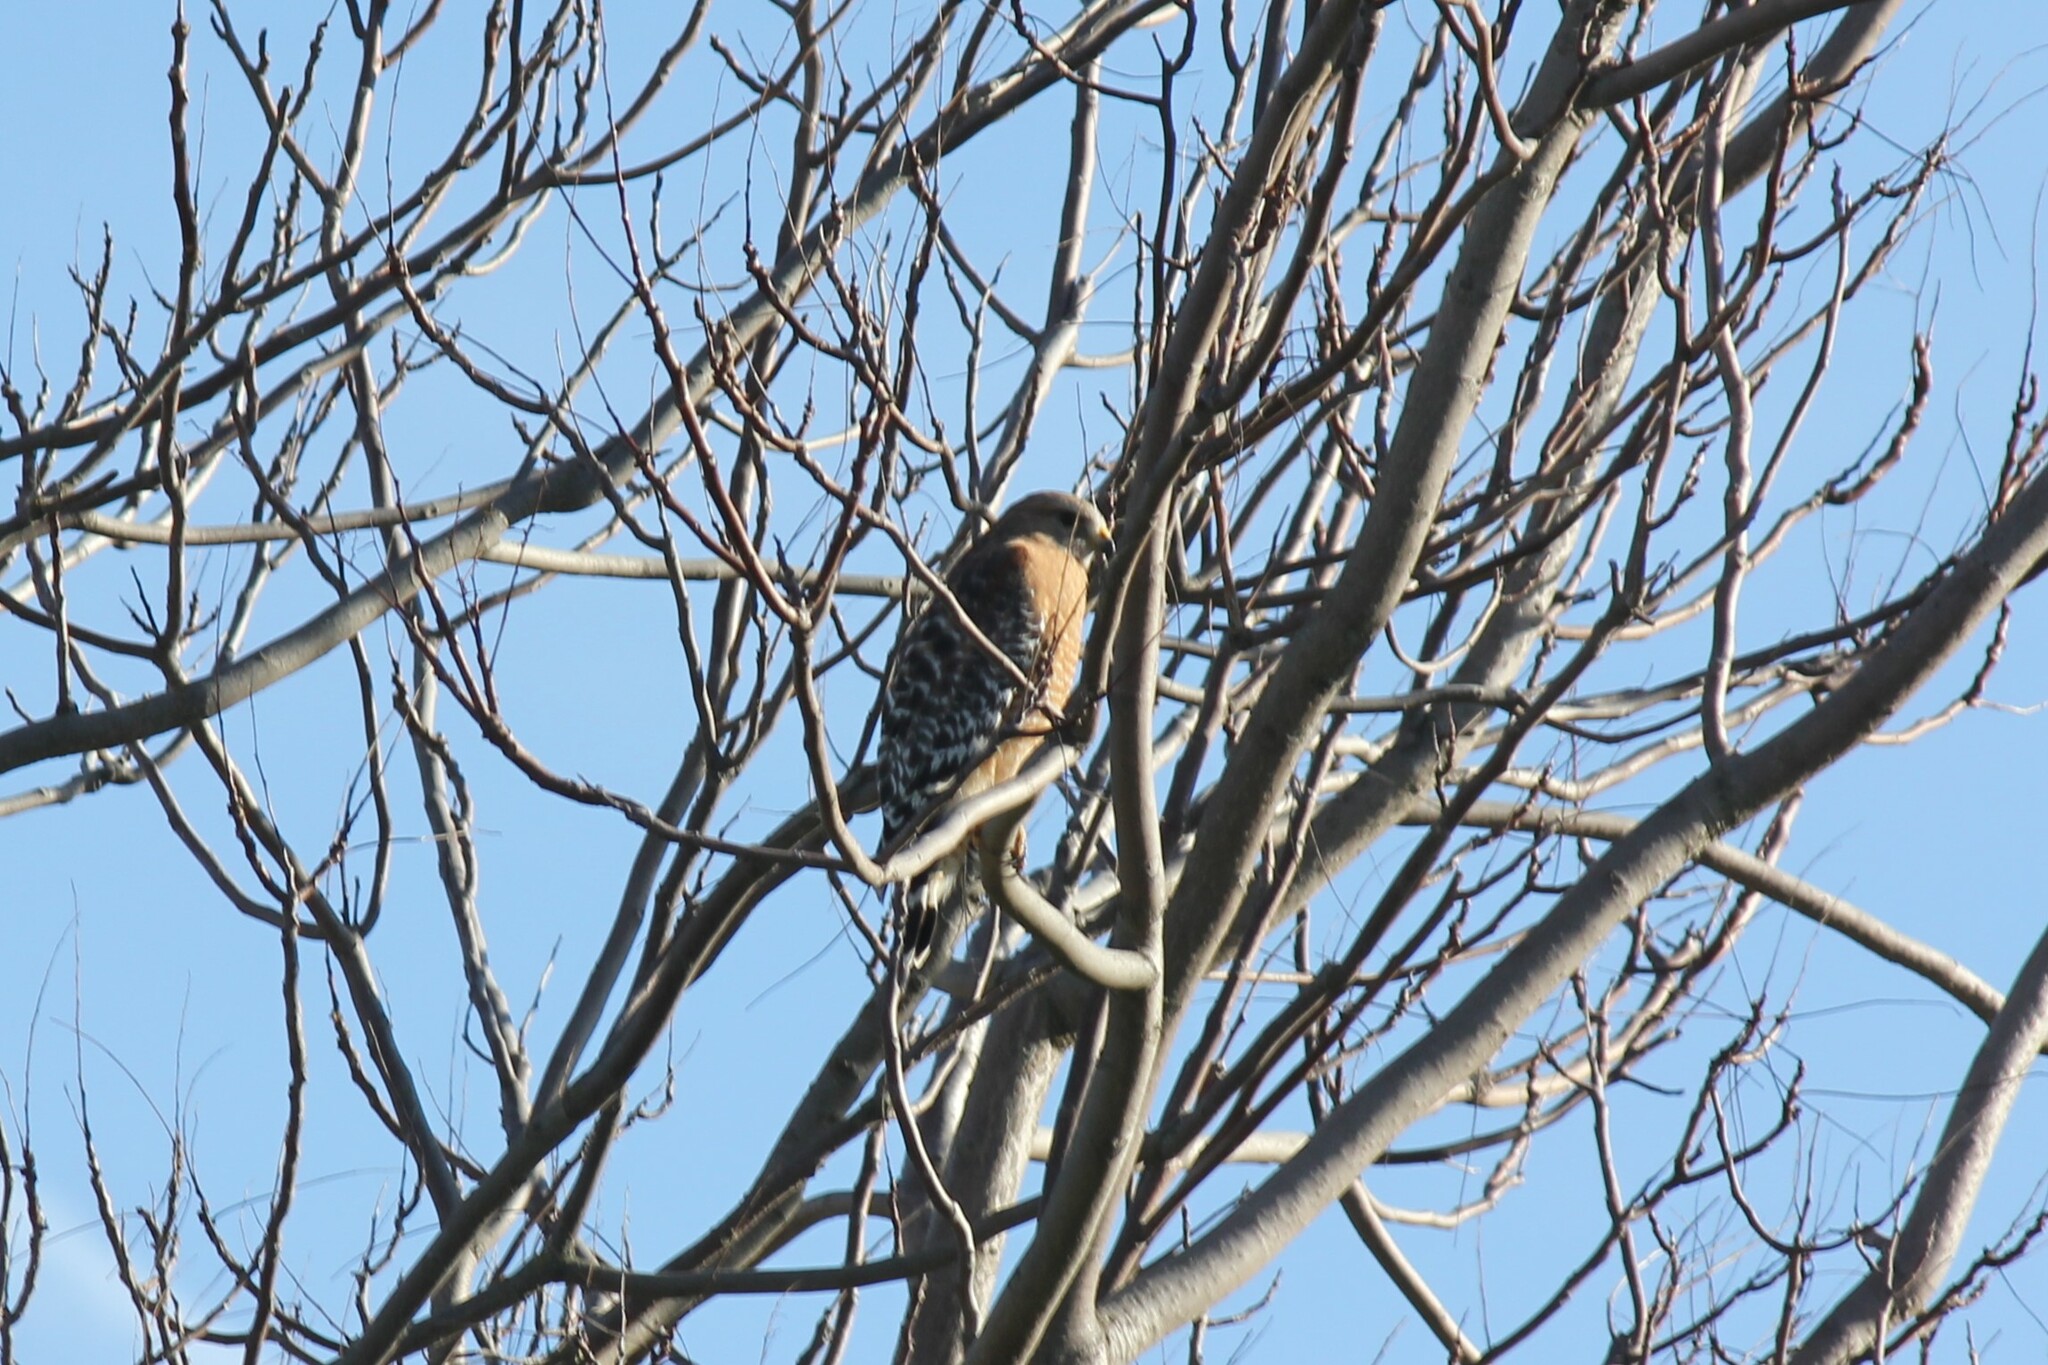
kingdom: Animalia
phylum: Chordata
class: Aves
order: Accipitriformes
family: Accipitridae
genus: Buteo
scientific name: Buteo lineatus
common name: Red-shouldered hawk
